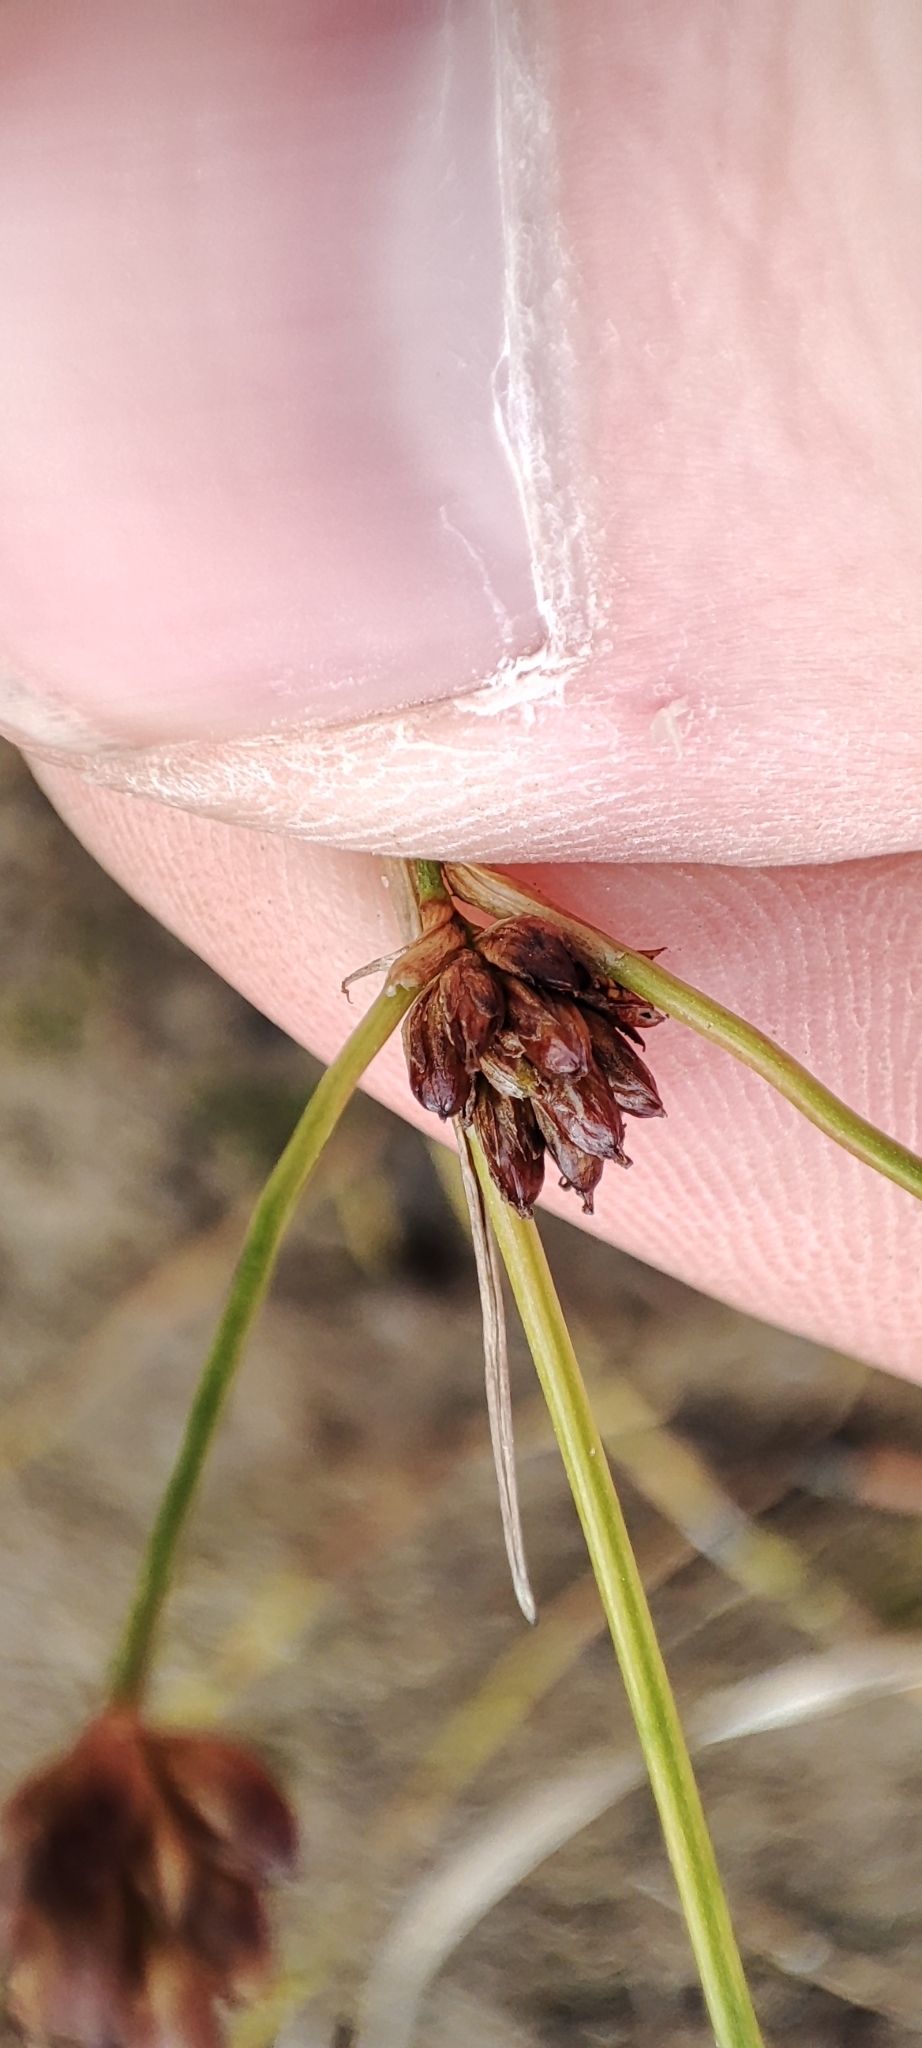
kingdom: Plantae
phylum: Tracheophyta
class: Liliopsida
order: Poales
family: Juncaceae
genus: Juncus
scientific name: Juncus alpinoarticulatus
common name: Alpine rush
